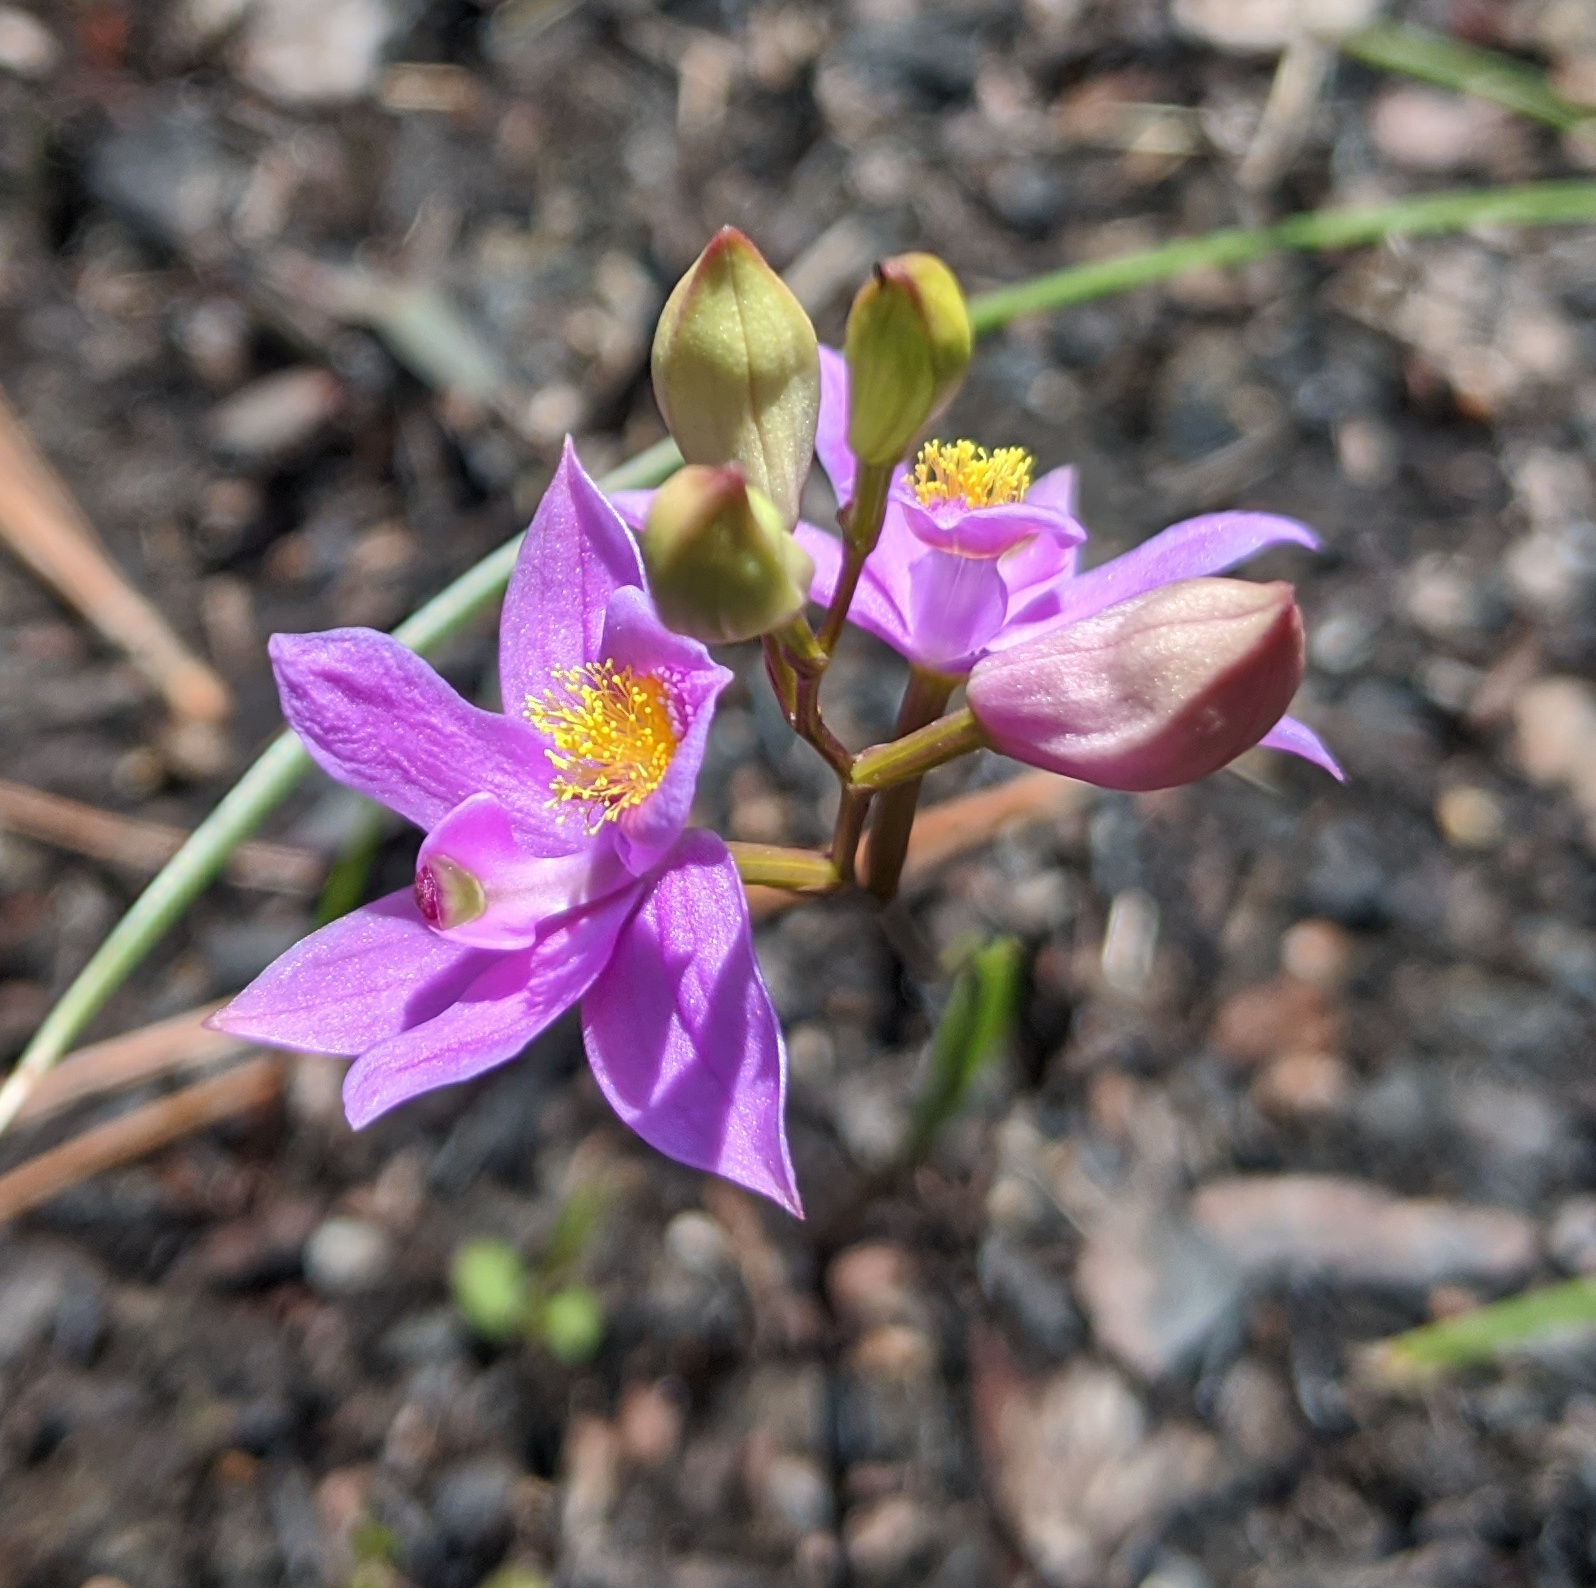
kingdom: Plantae
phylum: Tracheophyta
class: Liliopsida
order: Asparagales
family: Orchidaceae
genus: Calopogon
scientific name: Calopogon barbatus
